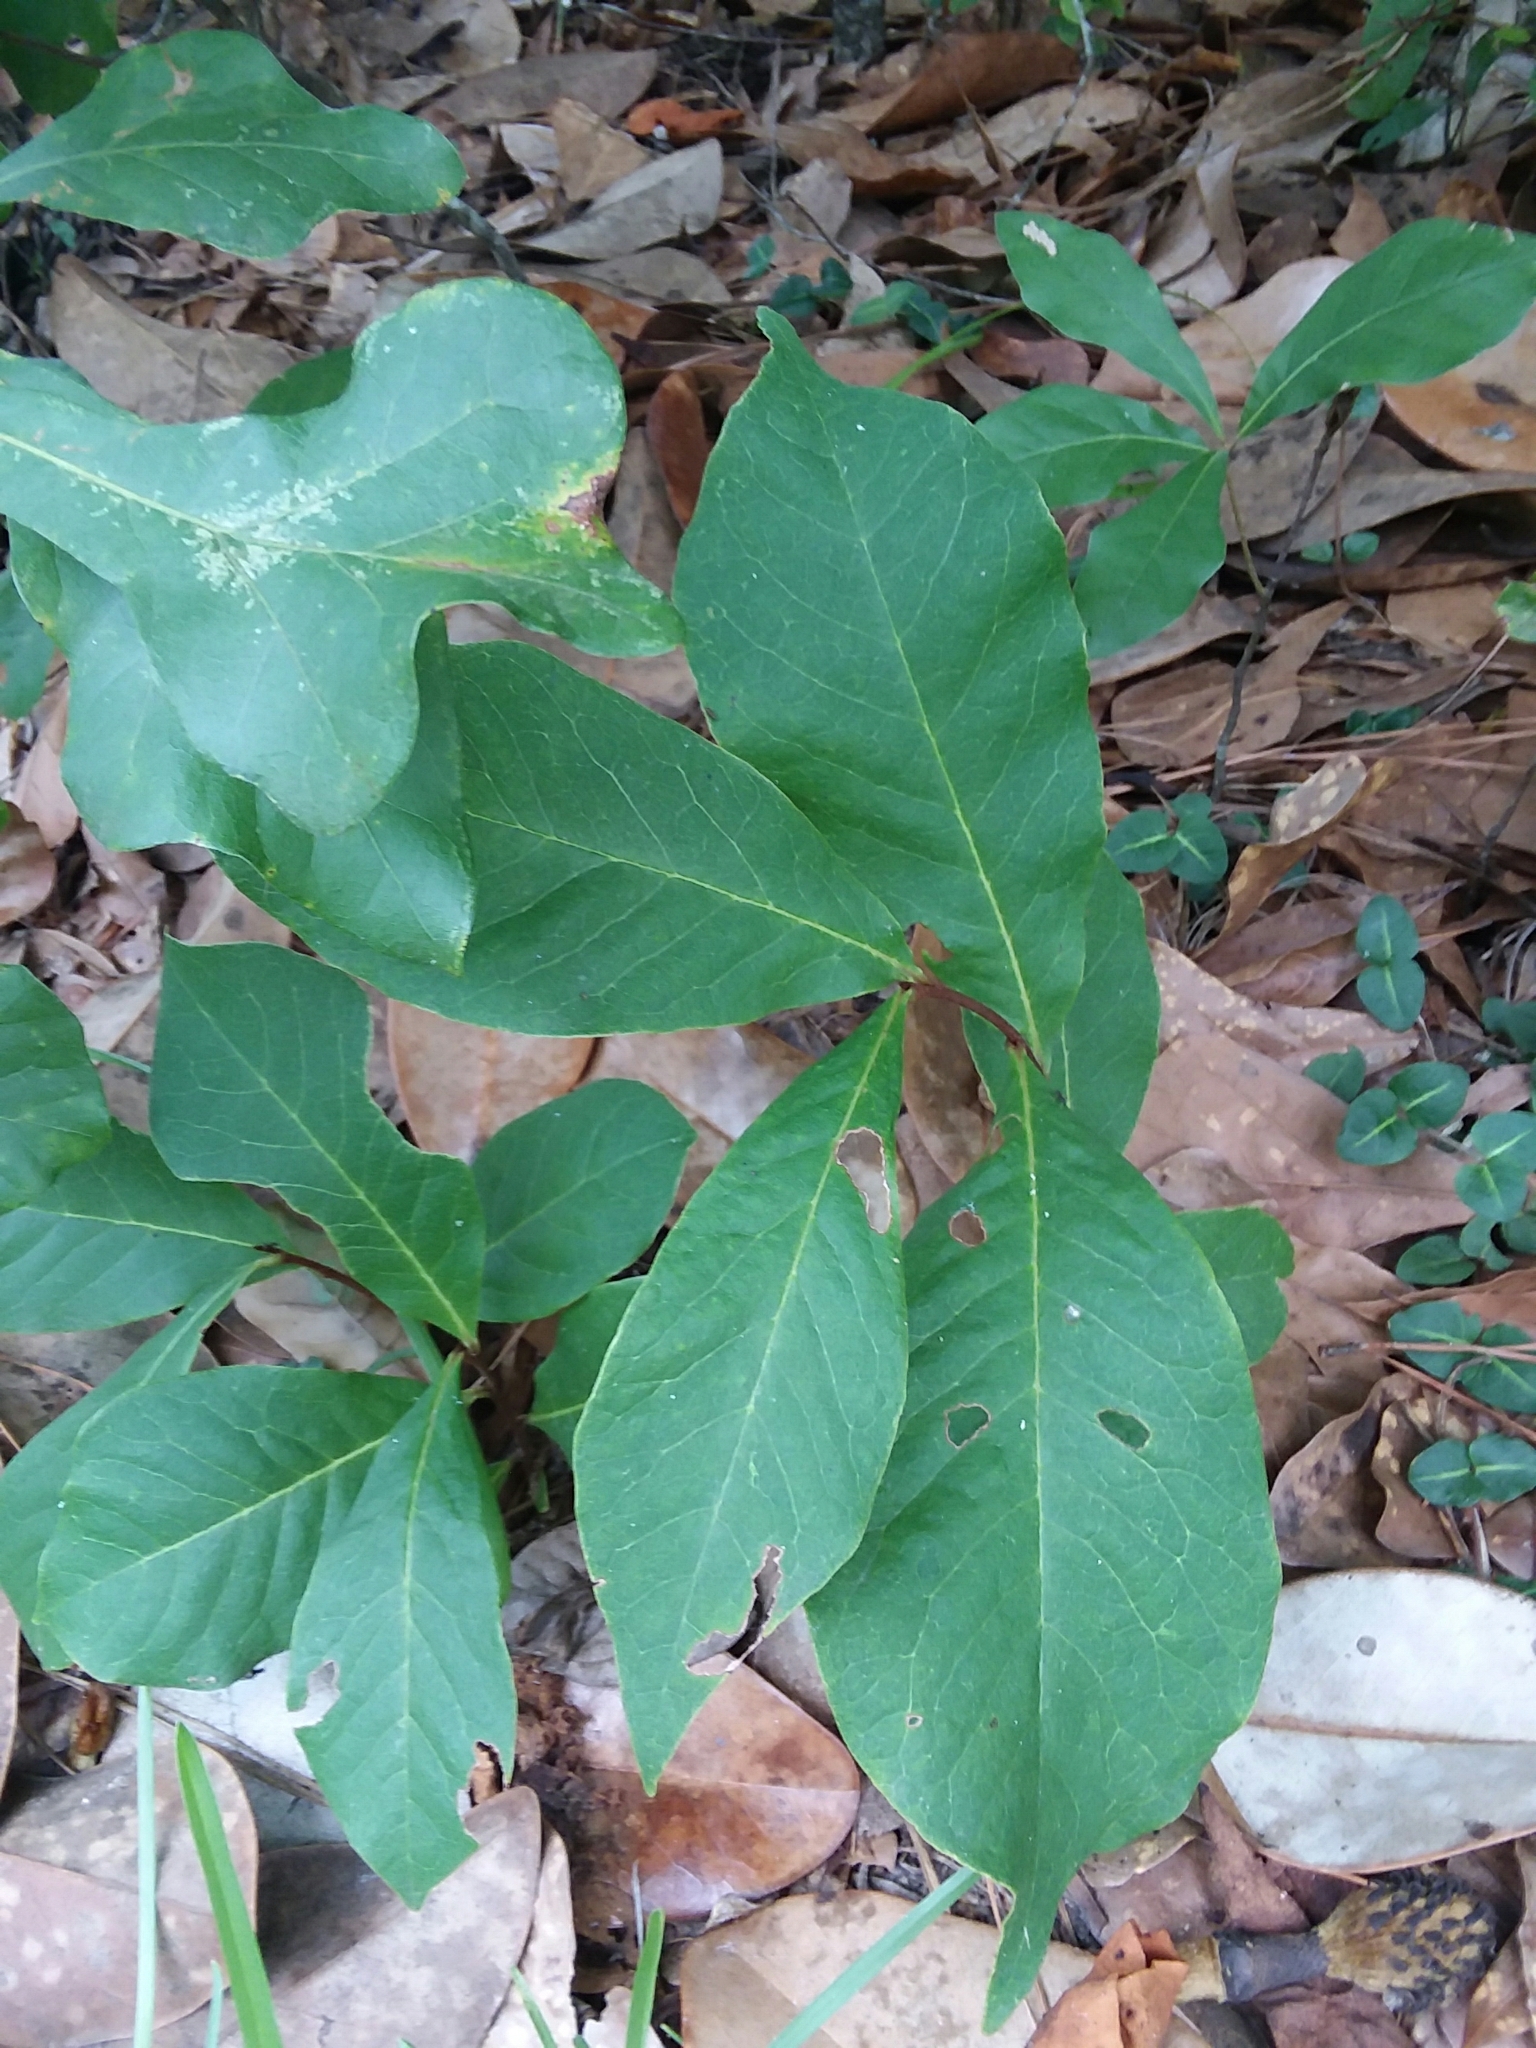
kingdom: Plantae
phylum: Tracheophyta
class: Magnoliopsida
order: Magnoliales
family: Annonaceae
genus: Asimina
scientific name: Asimina parviflora
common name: Dwarf pawpaw
